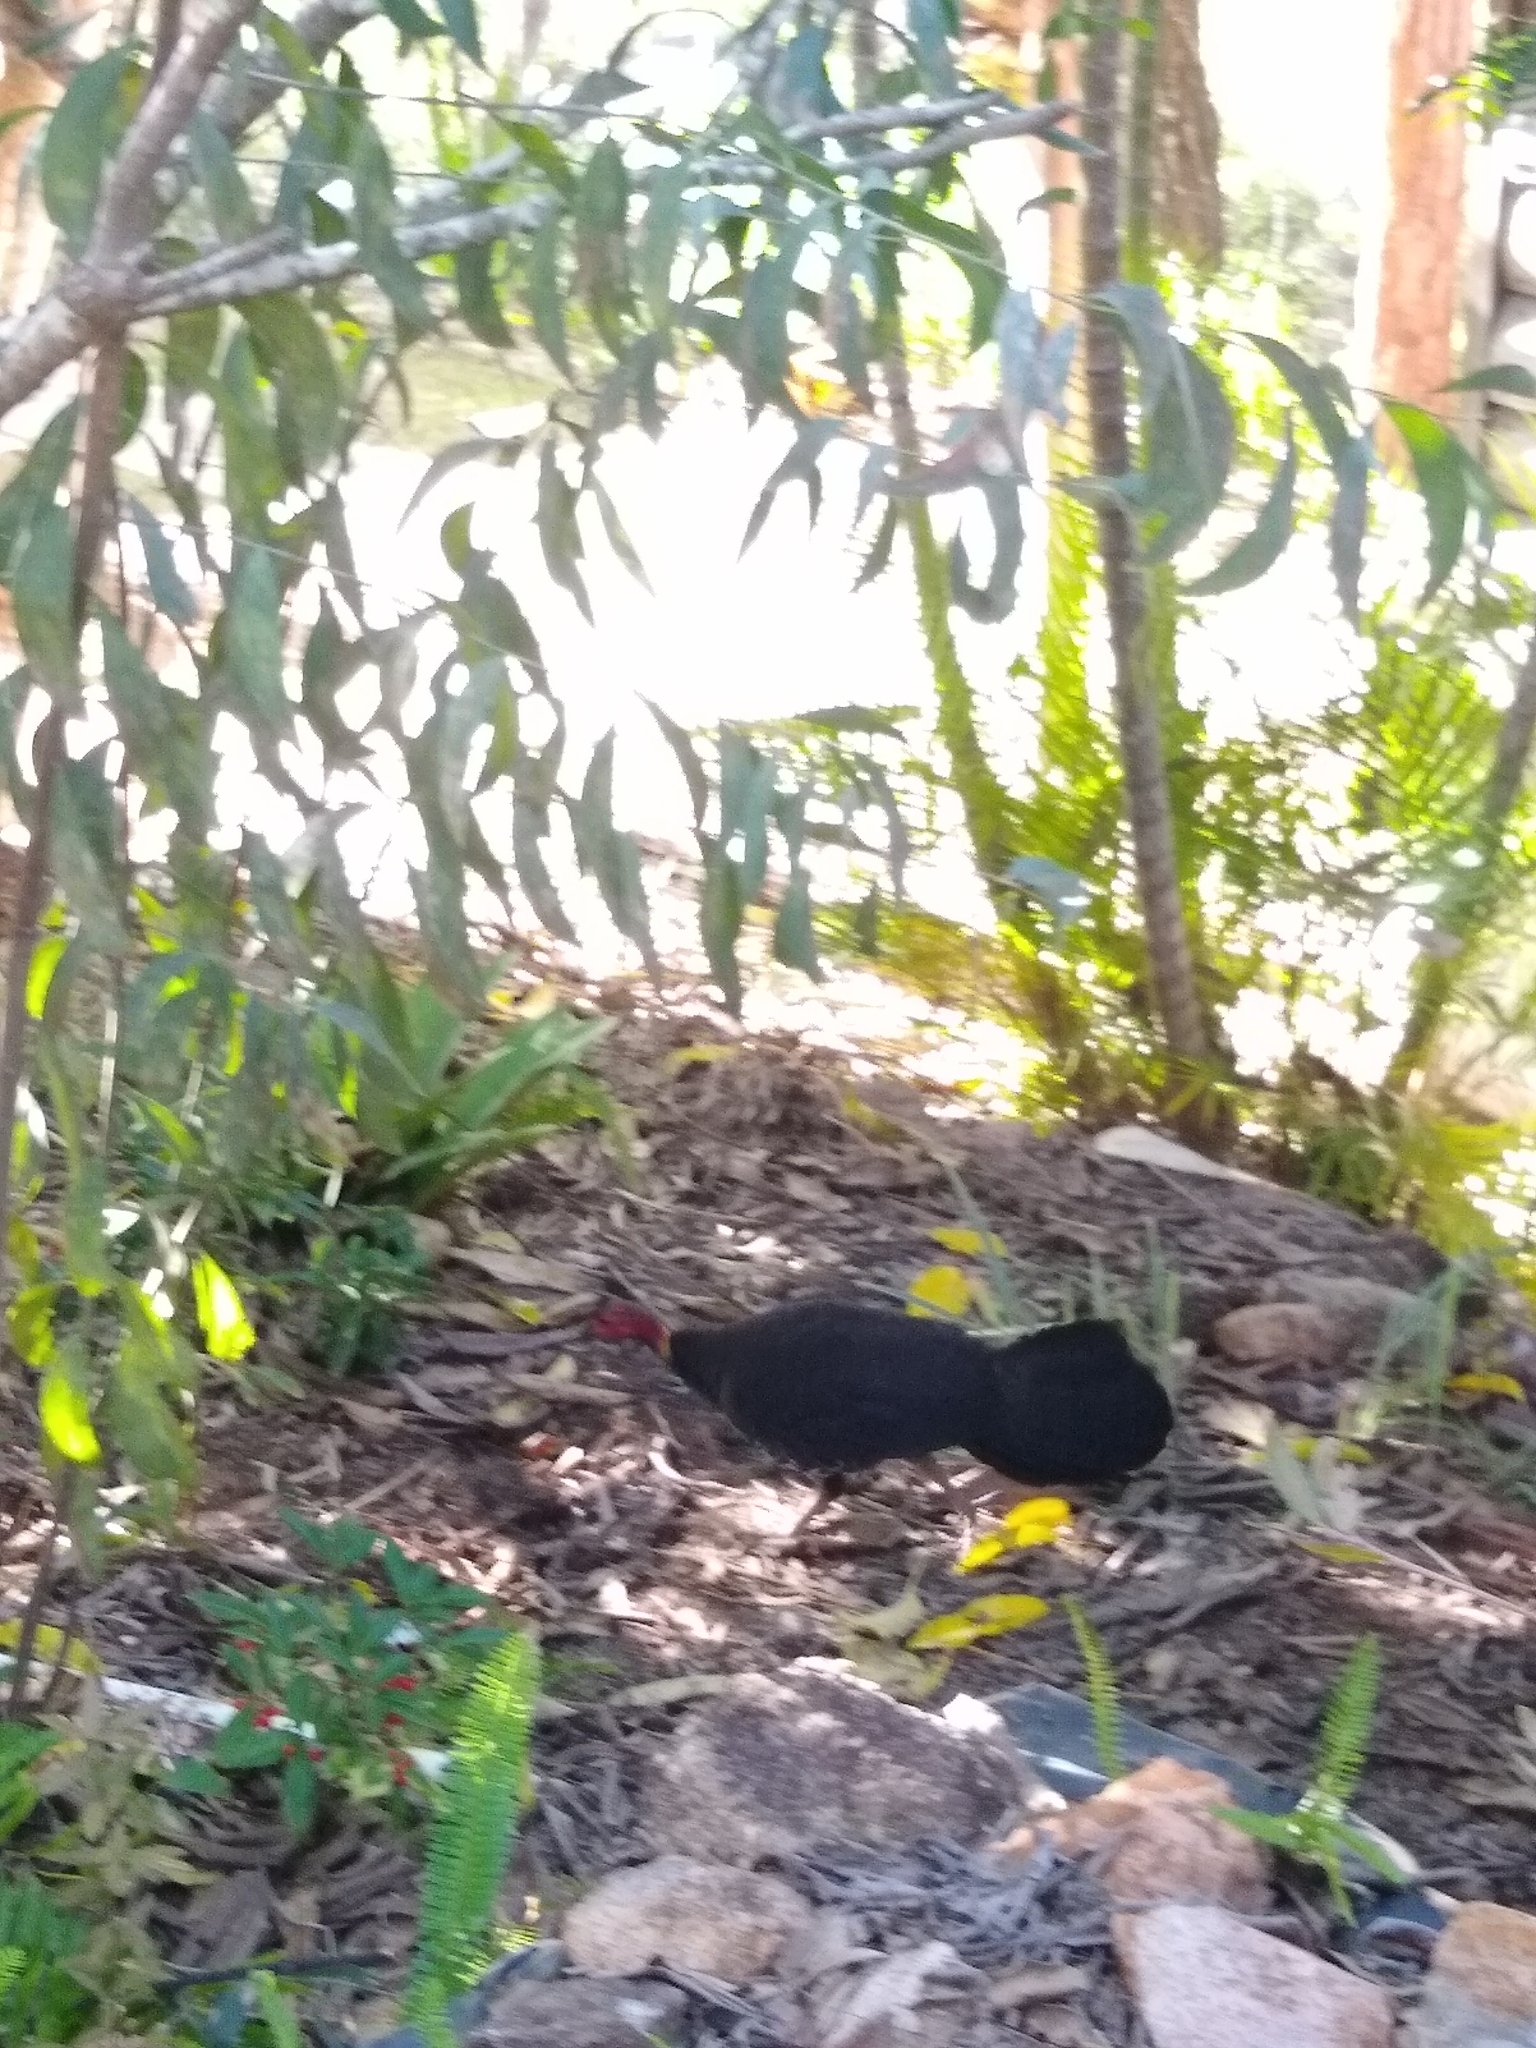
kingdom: Animalia
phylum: Chordata
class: Aves
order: Galliformes
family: Megapodiidae
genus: Alectura
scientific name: Alectura lathami
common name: Australian brushturkey
